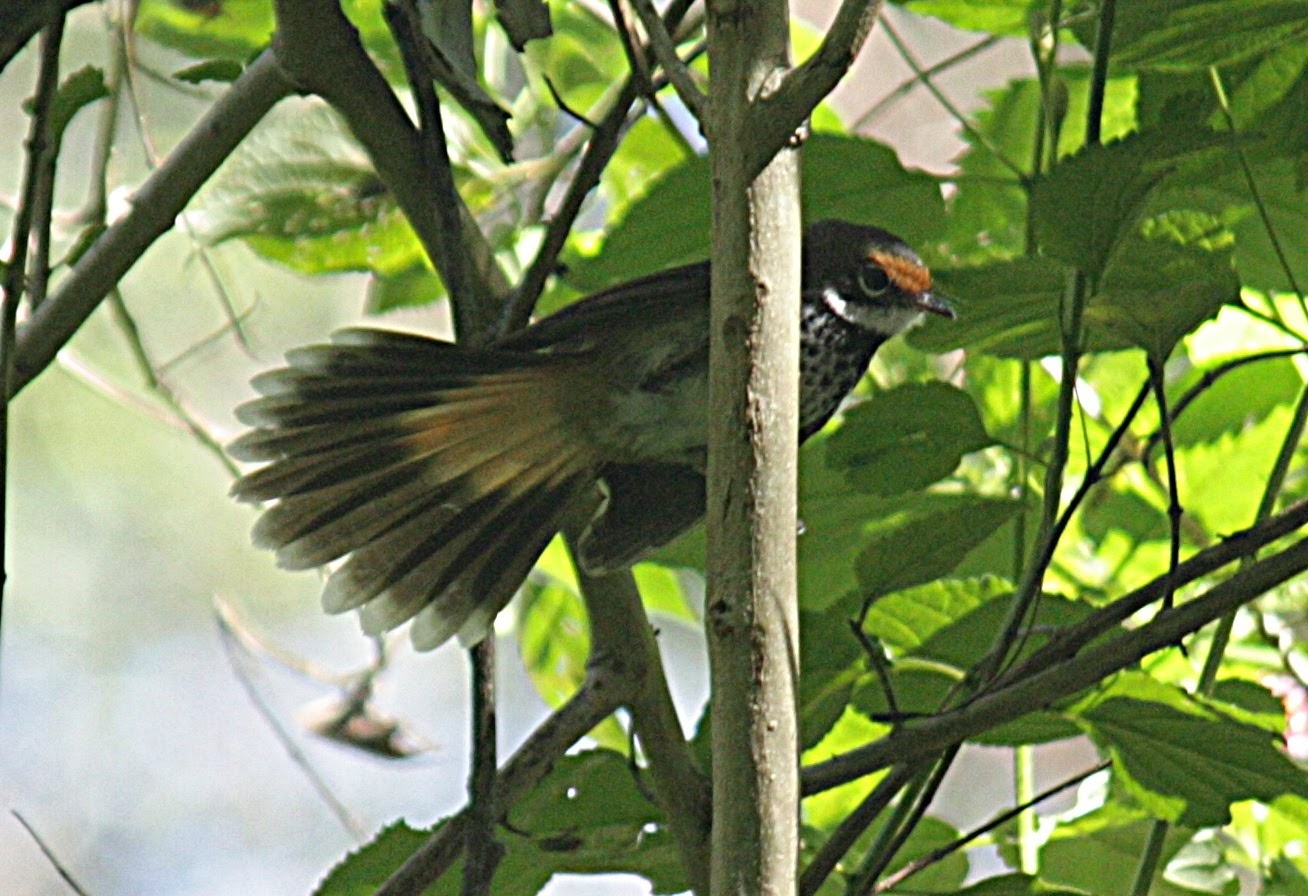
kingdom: Animalia
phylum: Chordata
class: Aves
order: Passeriformes
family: Rhipiduridae
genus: Rhipidura
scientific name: Rhipidura rufifrons
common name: Rufous fantail
